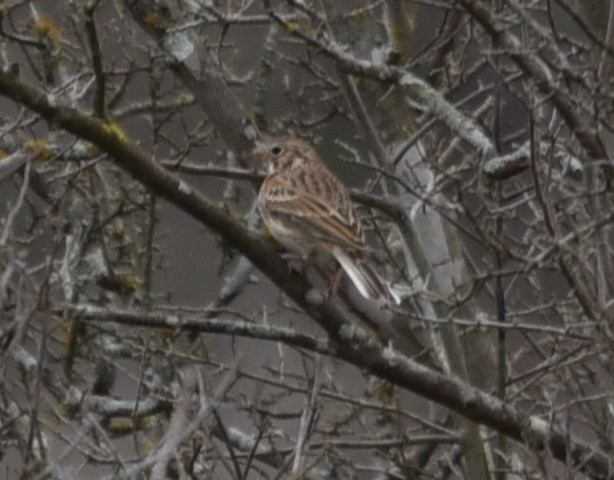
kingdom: Animalia
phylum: Chordata
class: Aves
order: Passeriformes
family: Passerellidae
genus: Pooecetes
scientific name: Pooecetes gramineus
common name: Vesper sparrow
